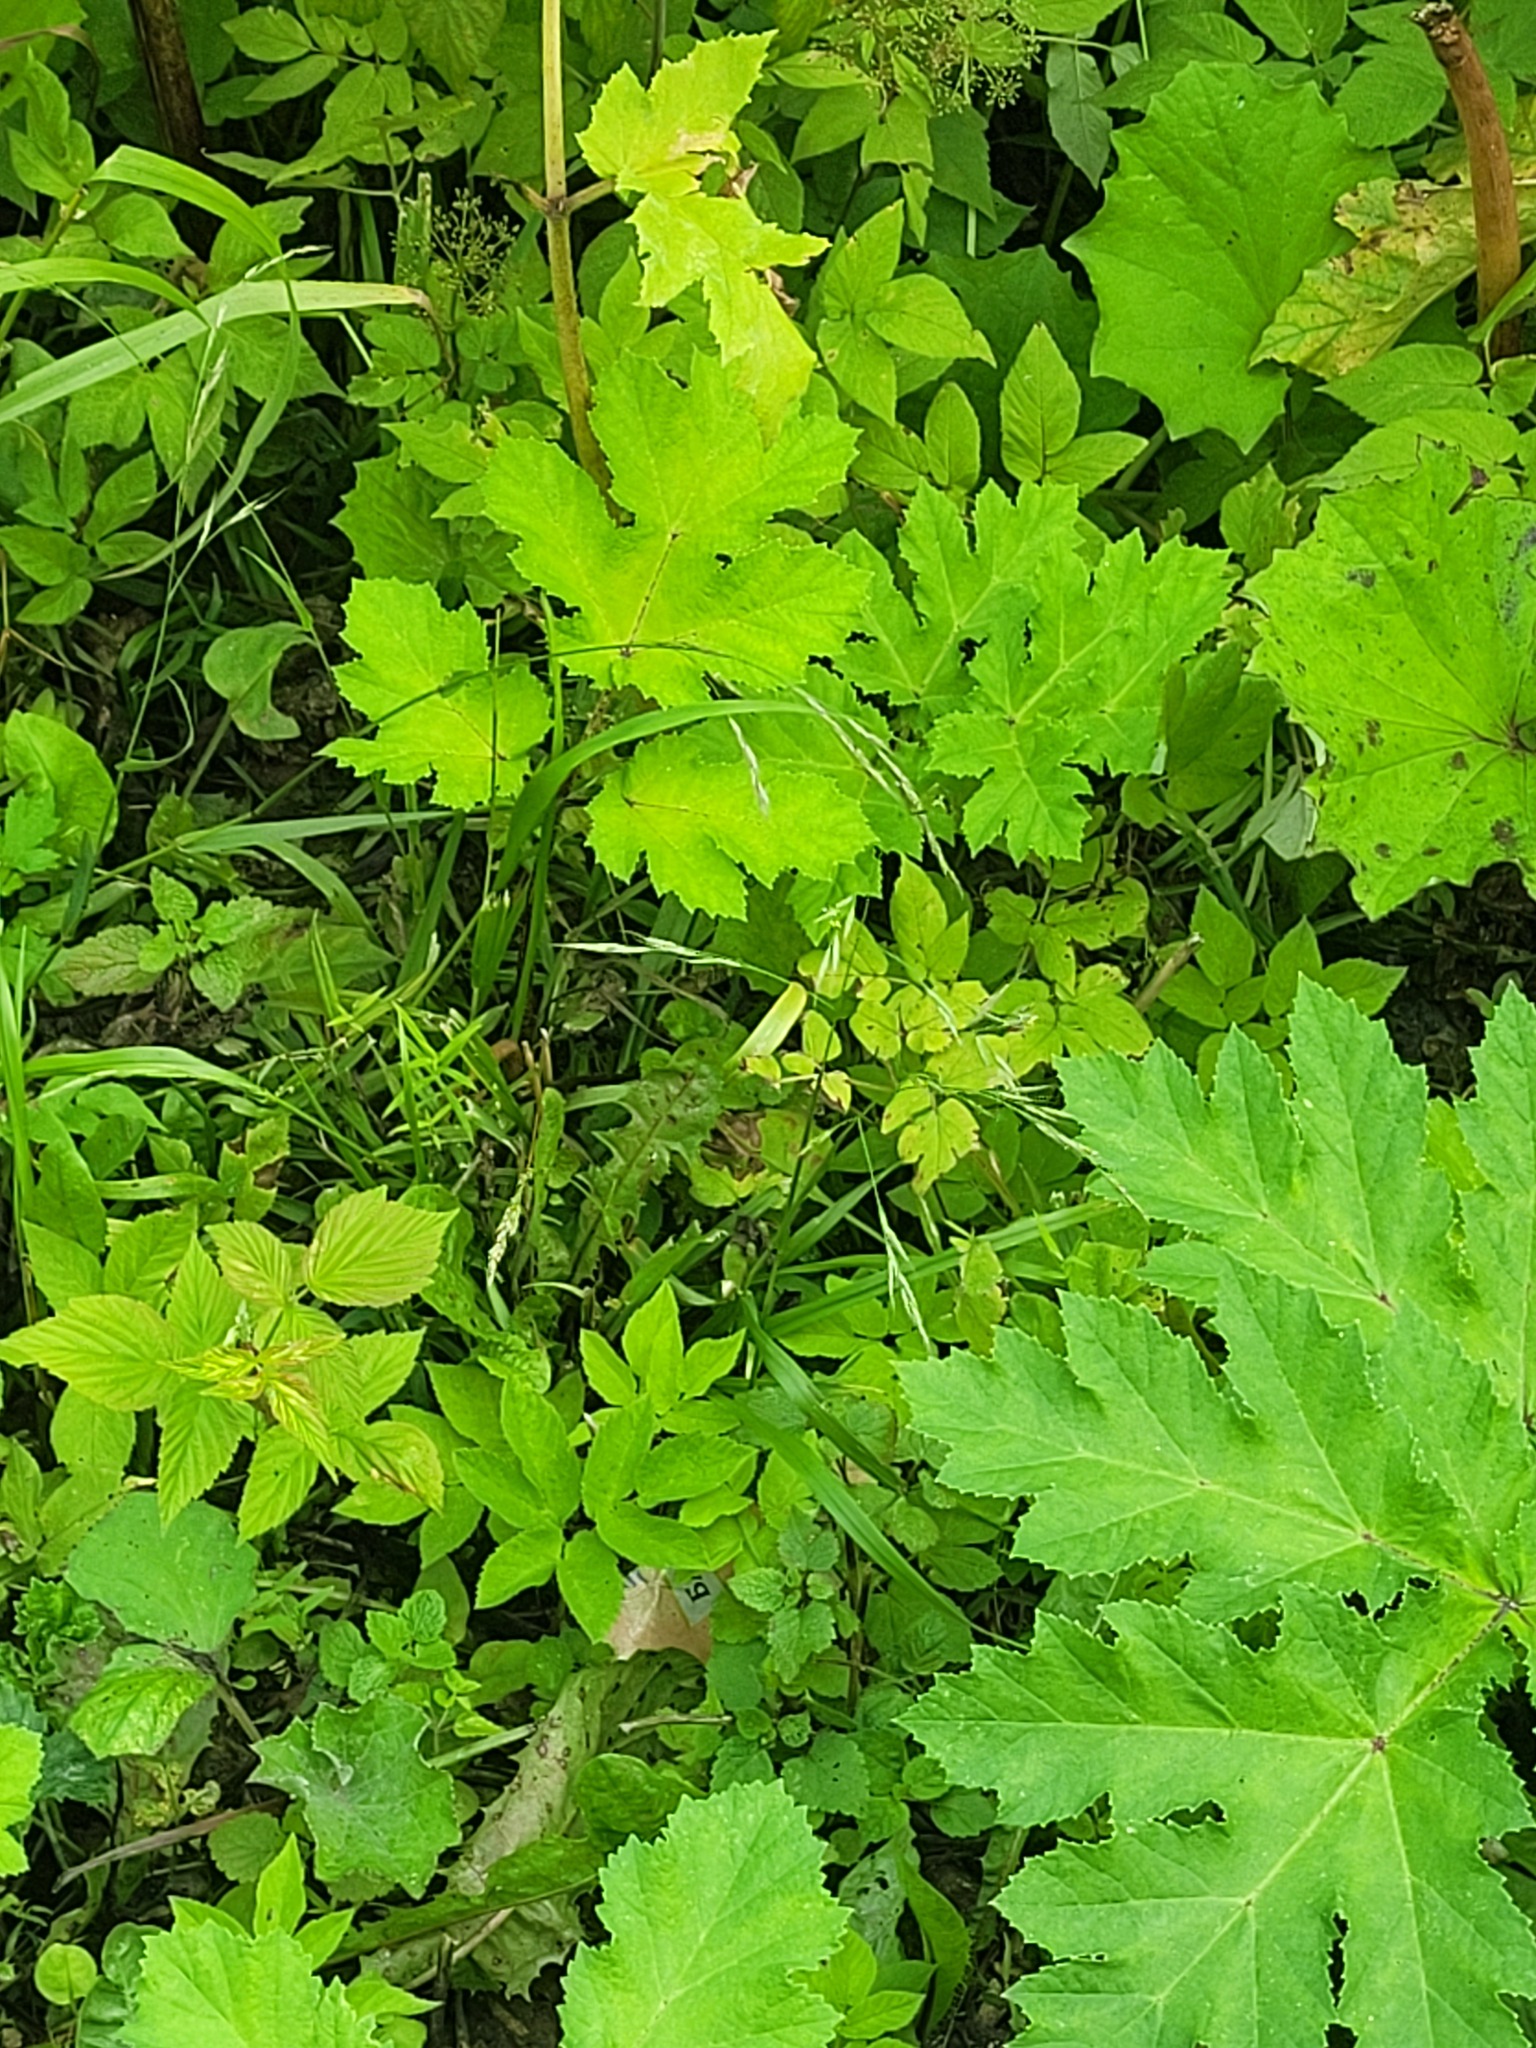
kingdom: Plantae
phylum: Tracheophyta
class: Liliopsida
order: Poales
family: Poaceae
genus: Lolium
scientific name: Lolium giganteum
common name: Giant fescue
